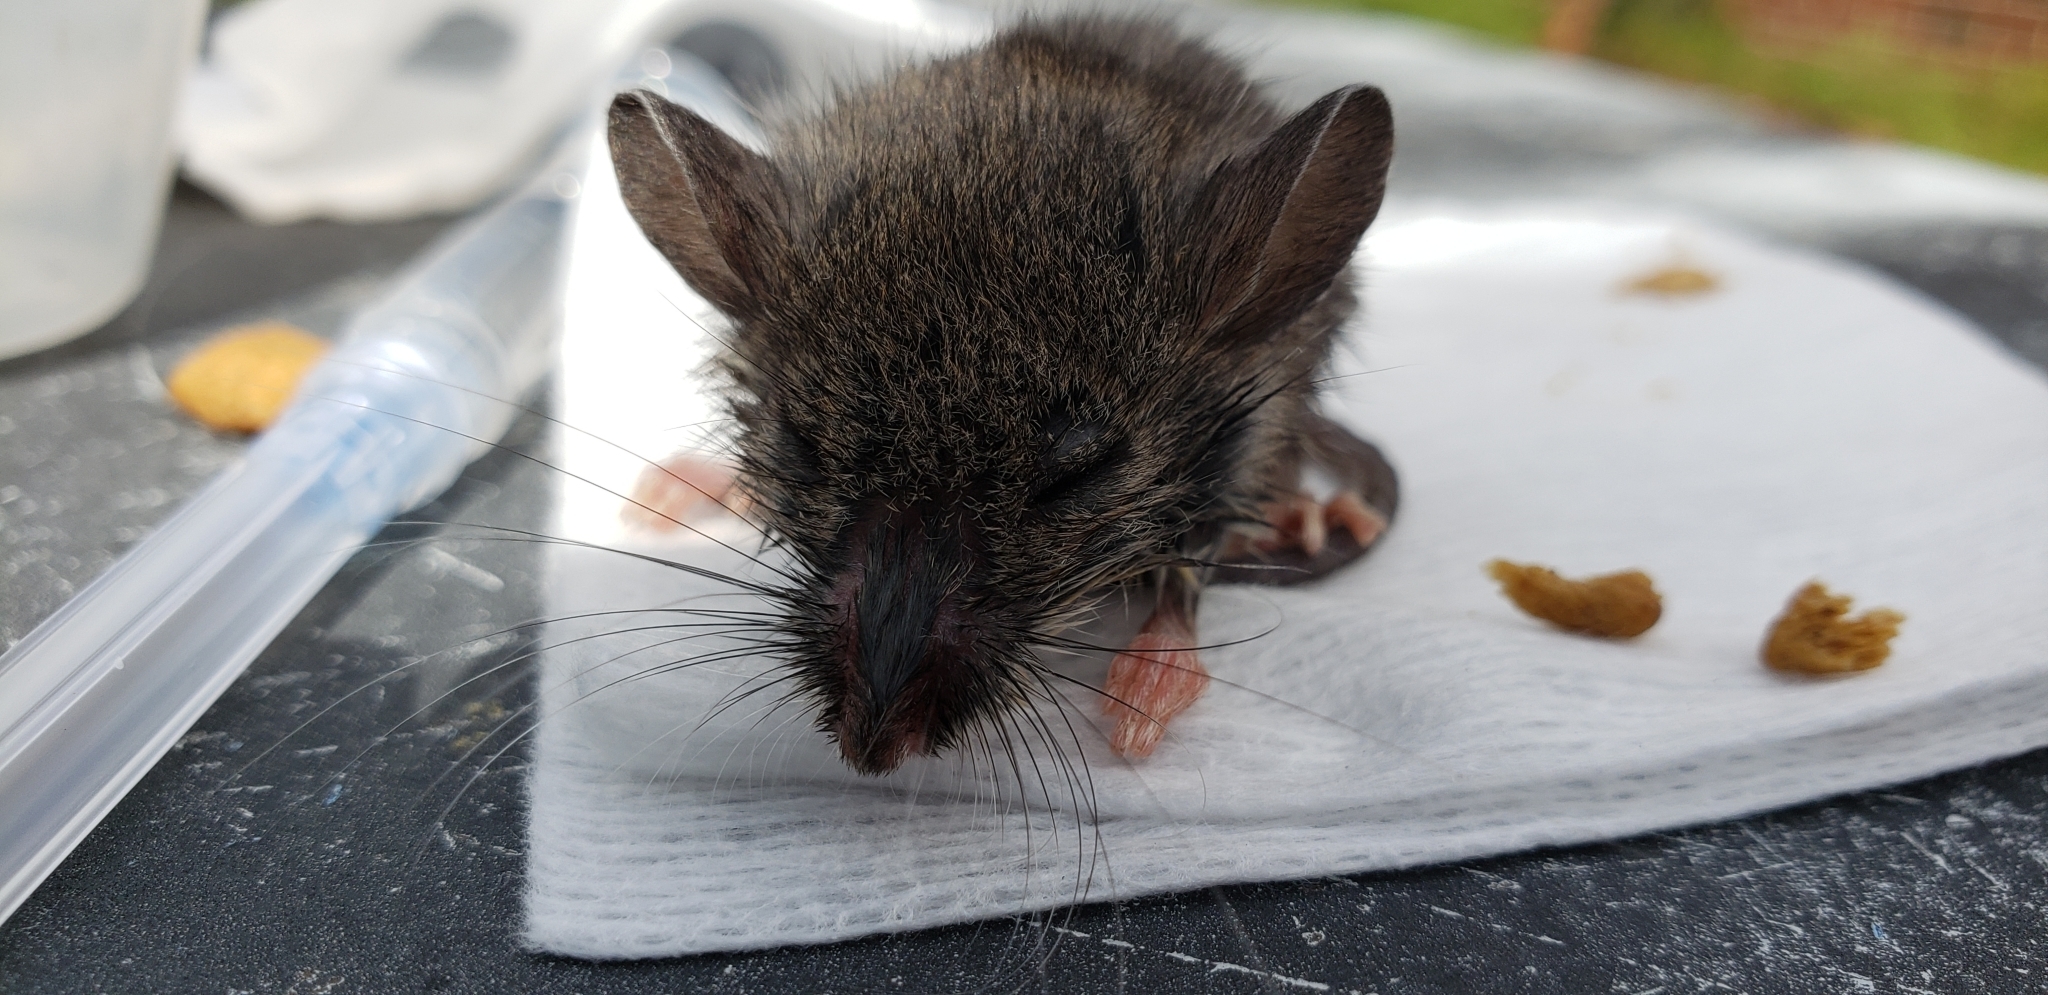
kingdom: Animalia
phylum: Chordata
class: Mammalia
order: Rodentia
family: Muridae
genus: Mus
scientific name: Mus musculus
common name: House mouse
